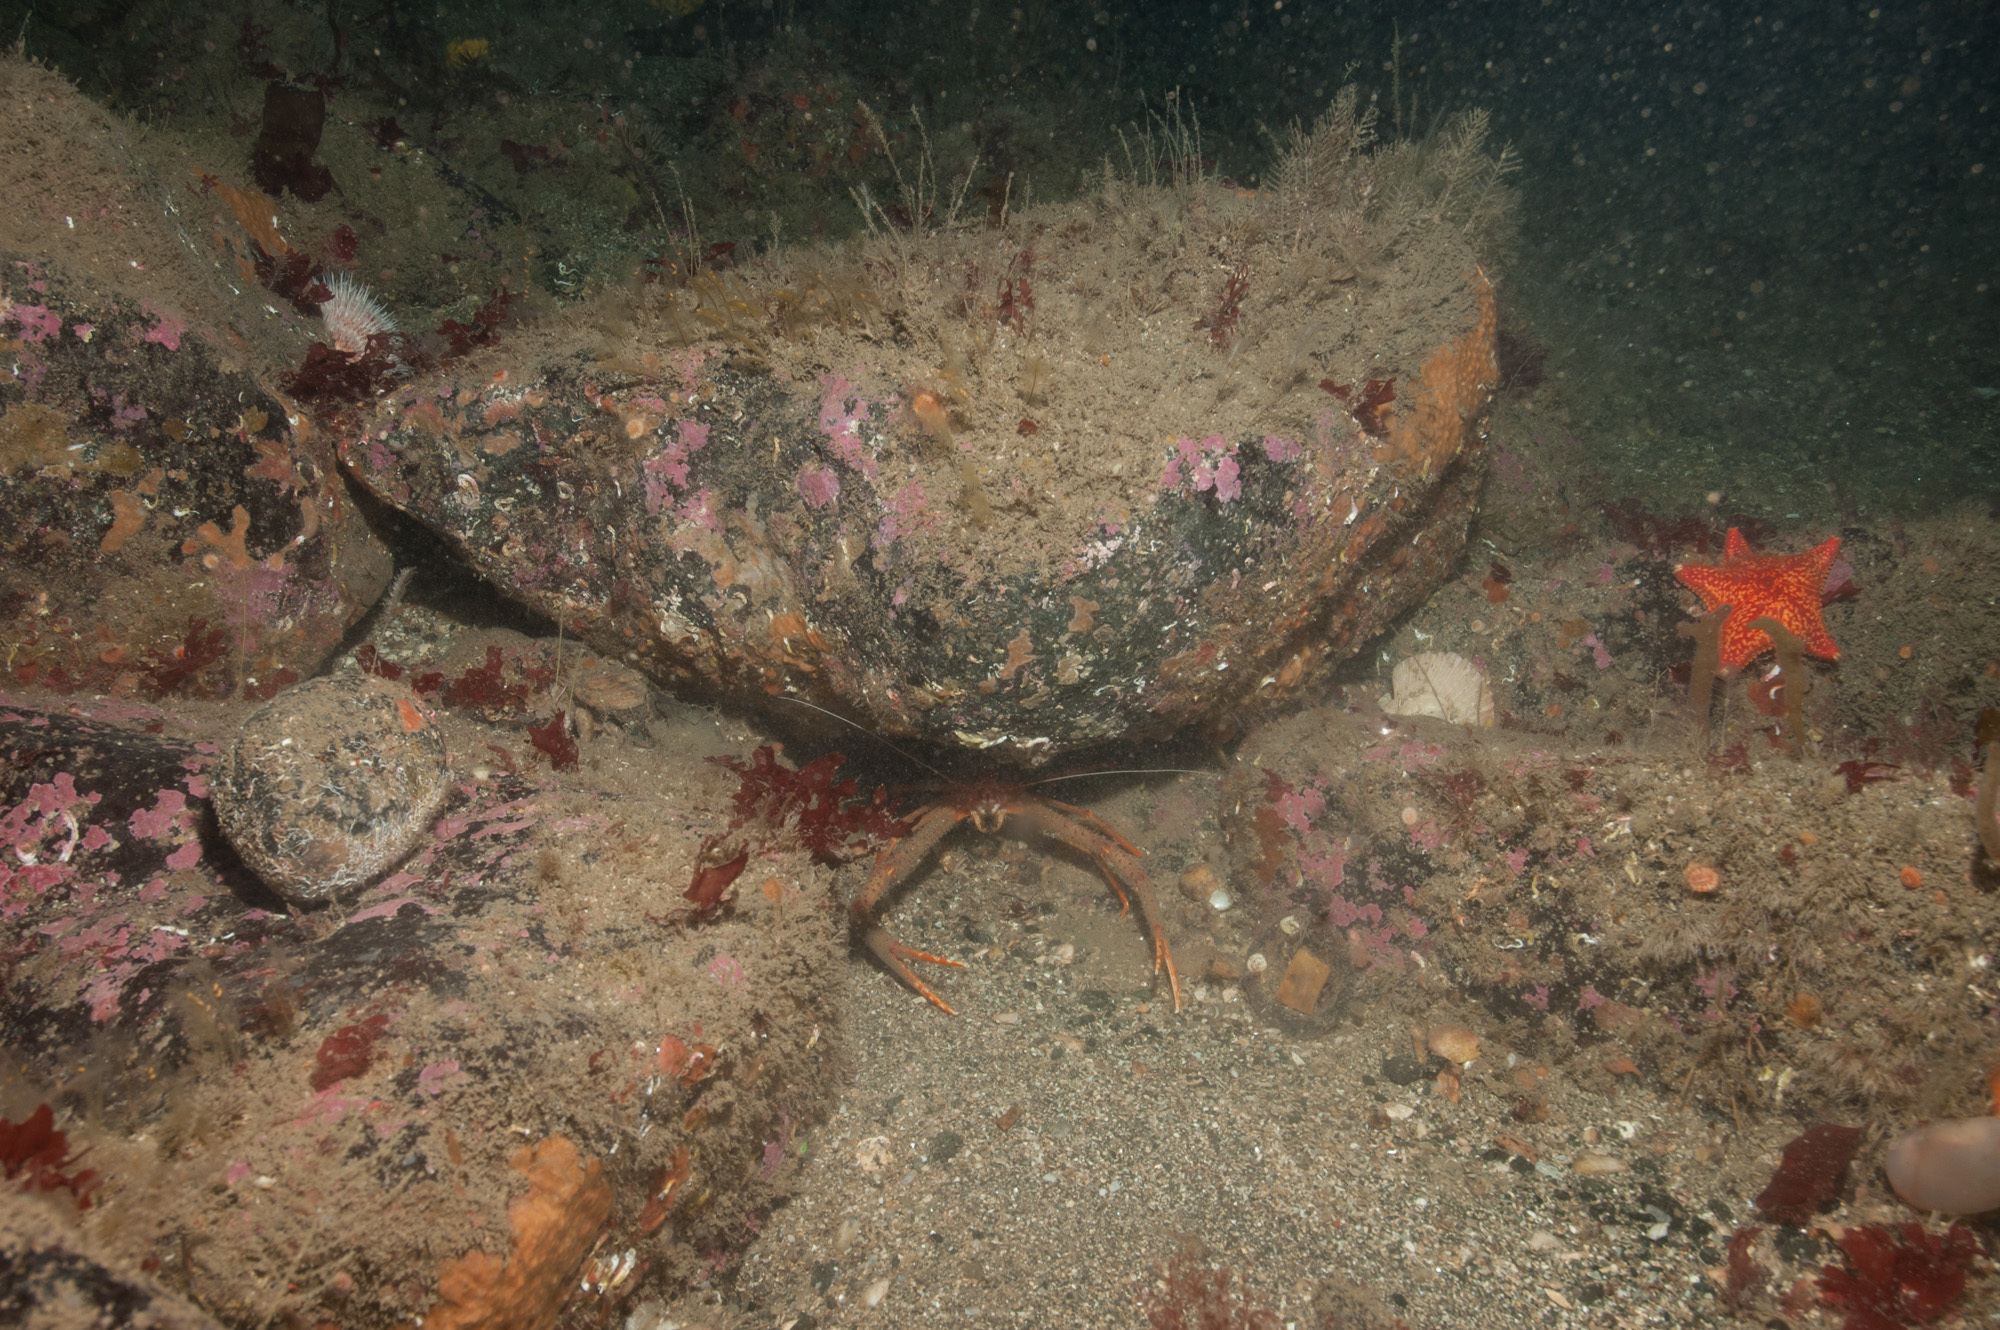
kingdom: Animalia
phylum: Arthropoda
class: Malacostraca
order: Decapoda
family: Munididae
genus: Munida
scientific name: Munida rugosa
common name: Rugose squat lobster
